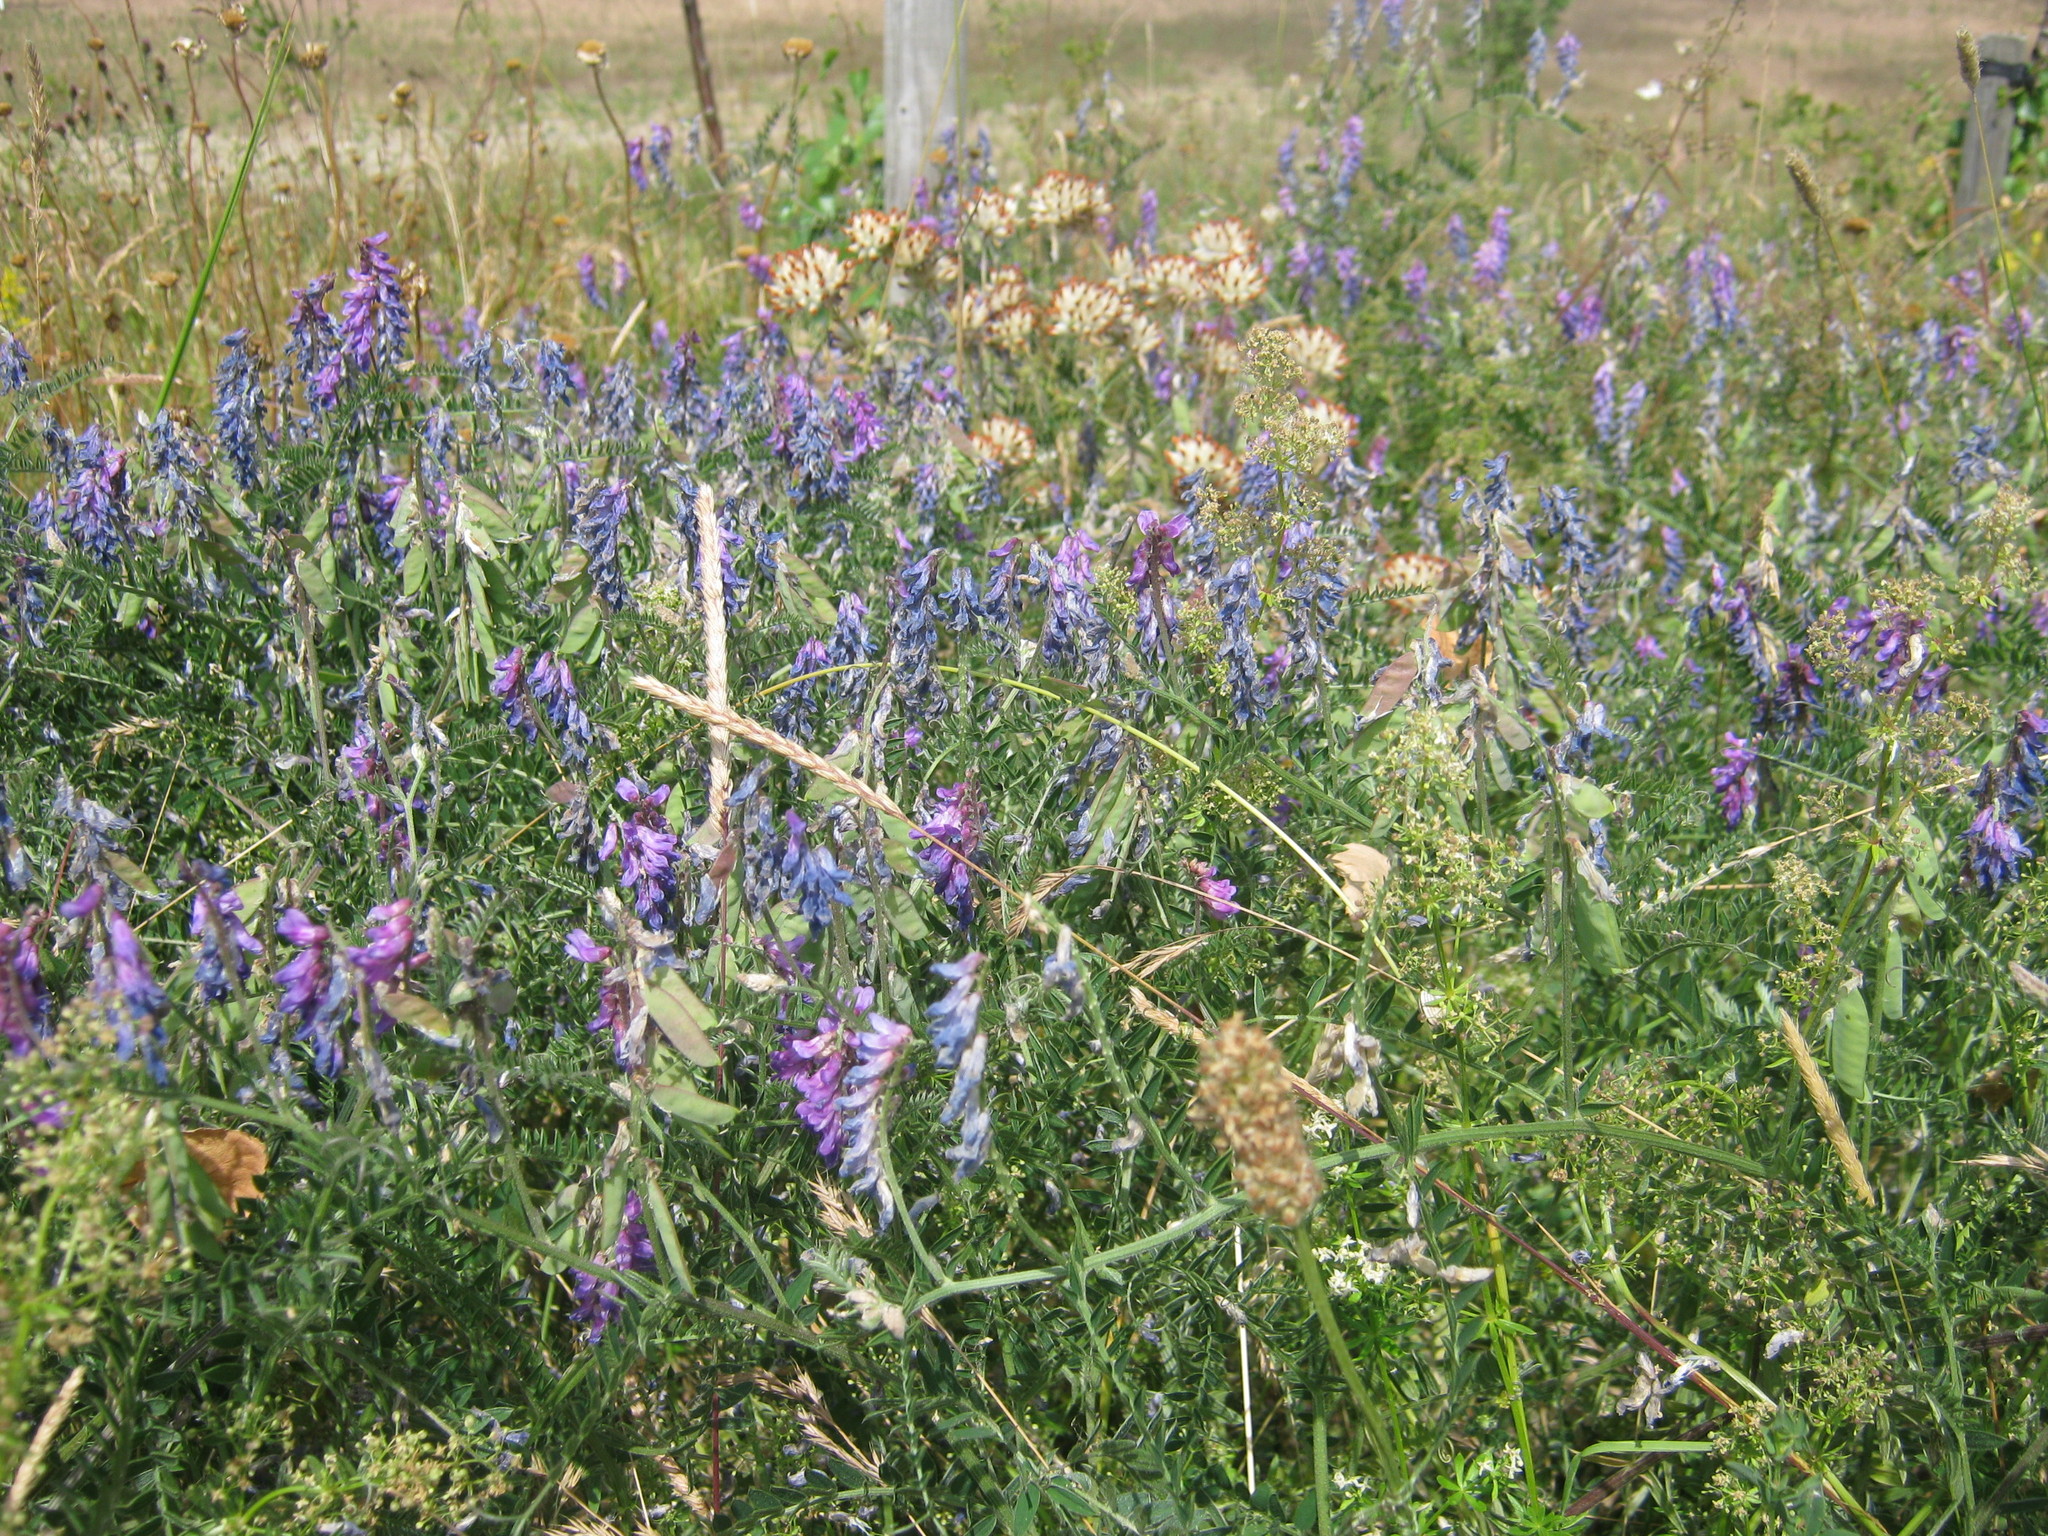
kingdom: Plantae
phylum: Tracheophyta
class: Magnoliopsida
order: Fabales
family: Fabaceae
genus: Vicia
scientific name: Vicia cracca
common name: Bird vetch
